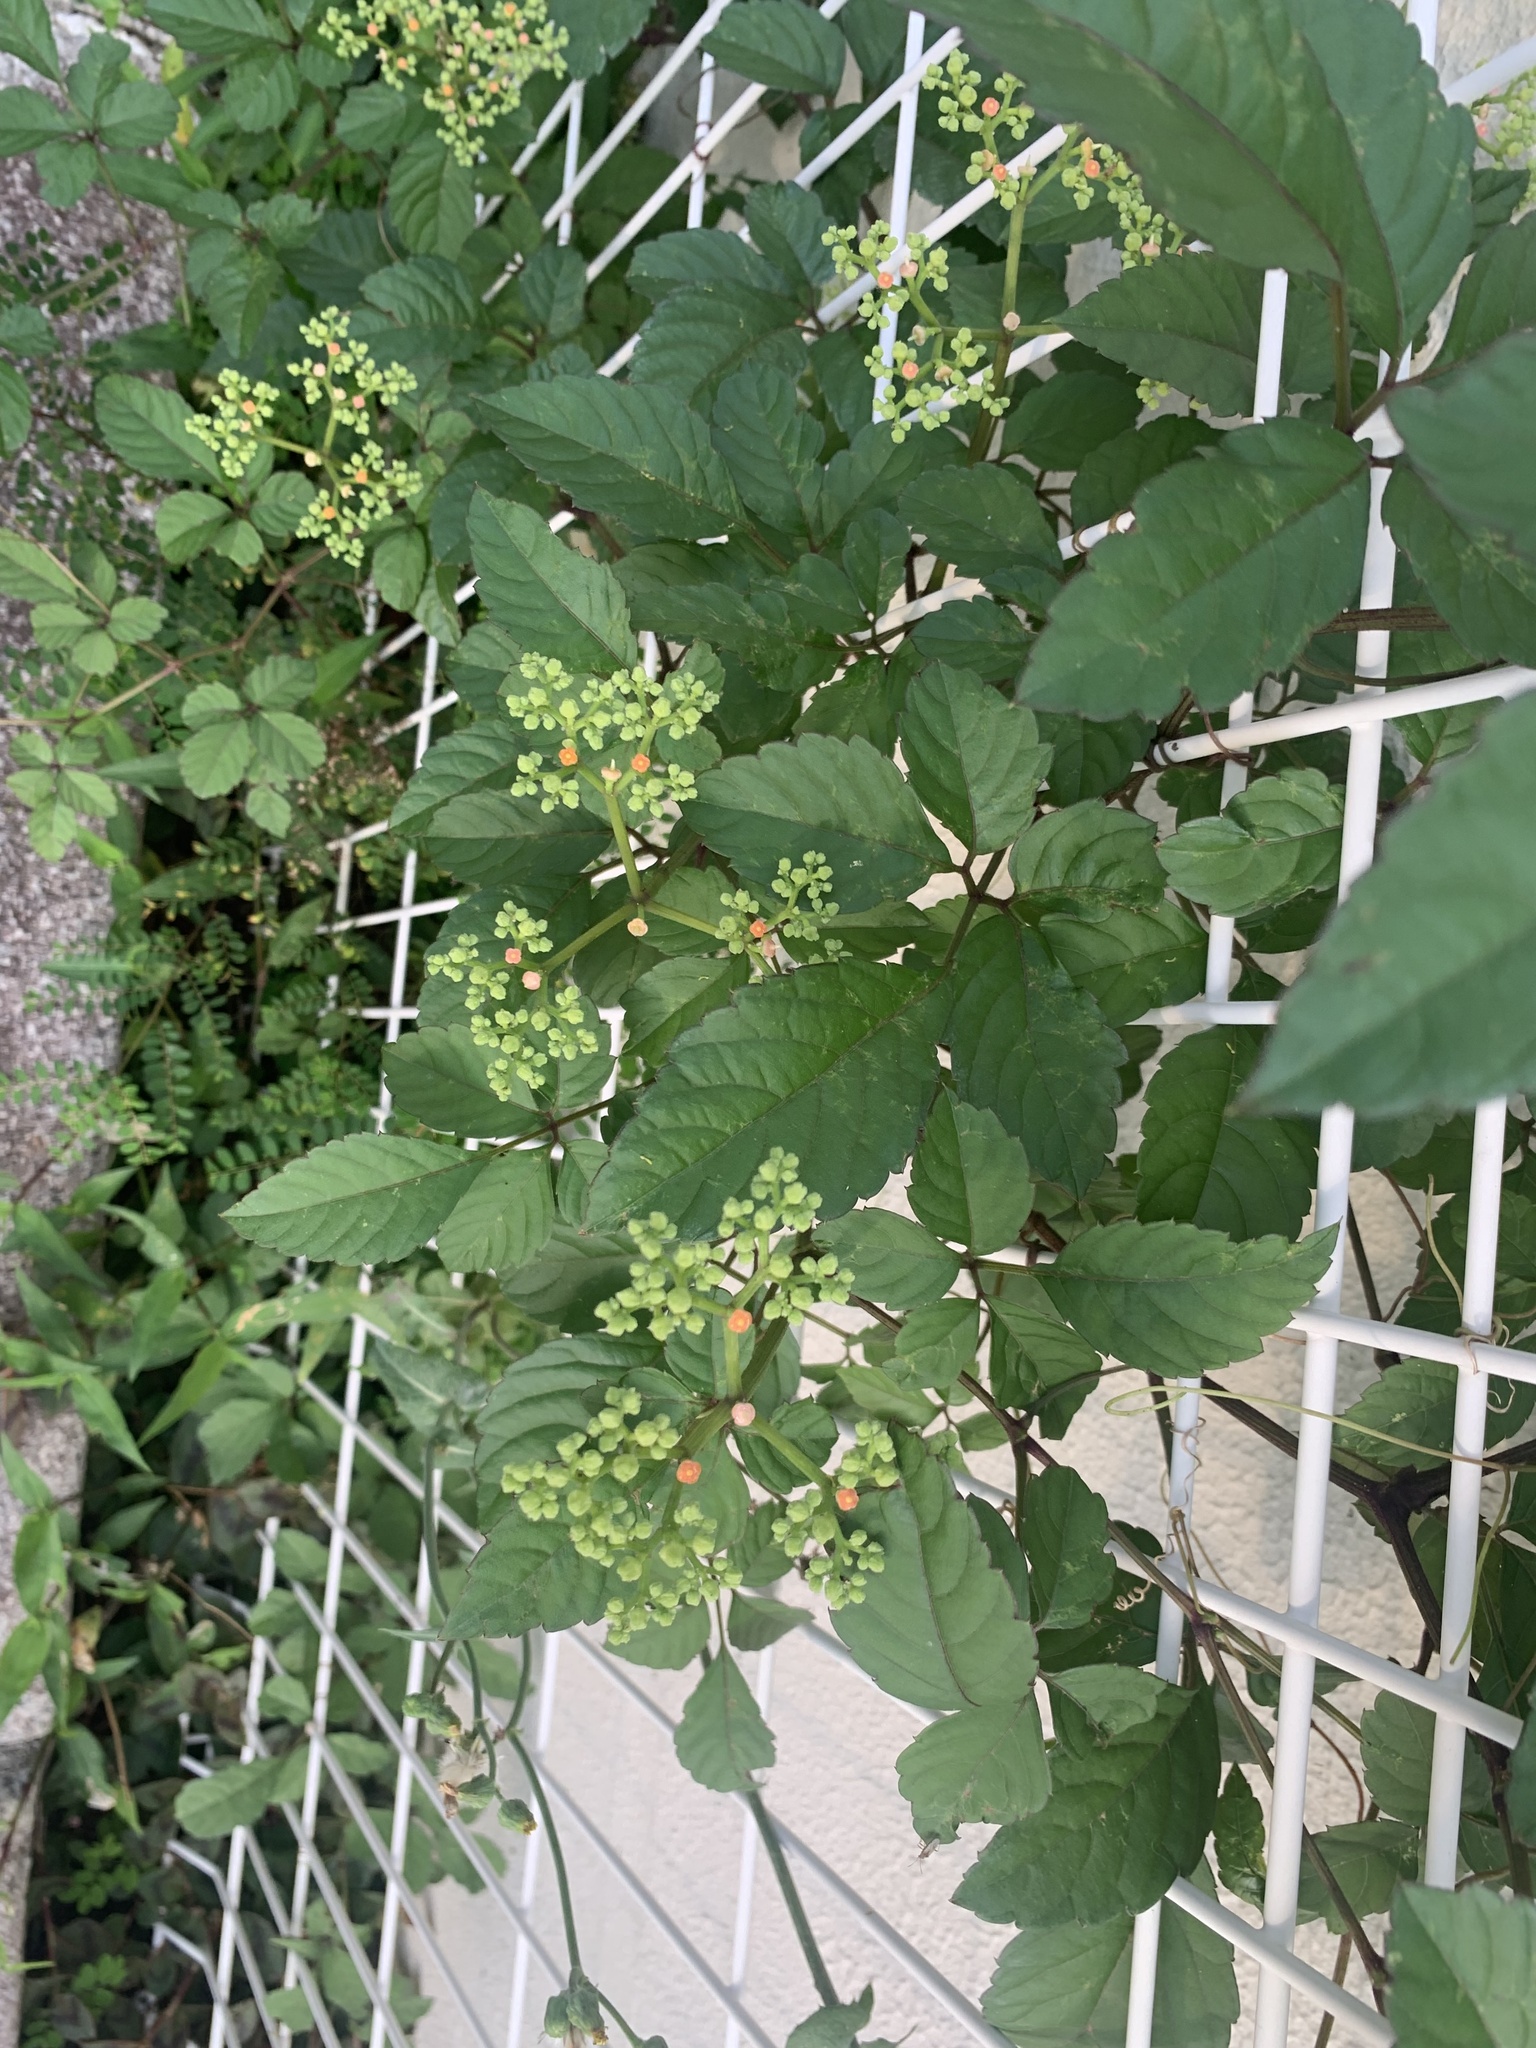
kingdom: Plantae
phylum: Tracheophyta
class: Magnoliopsida
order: Vitales
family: Vitaceae
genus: Causonis
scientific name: Causonis japonica
